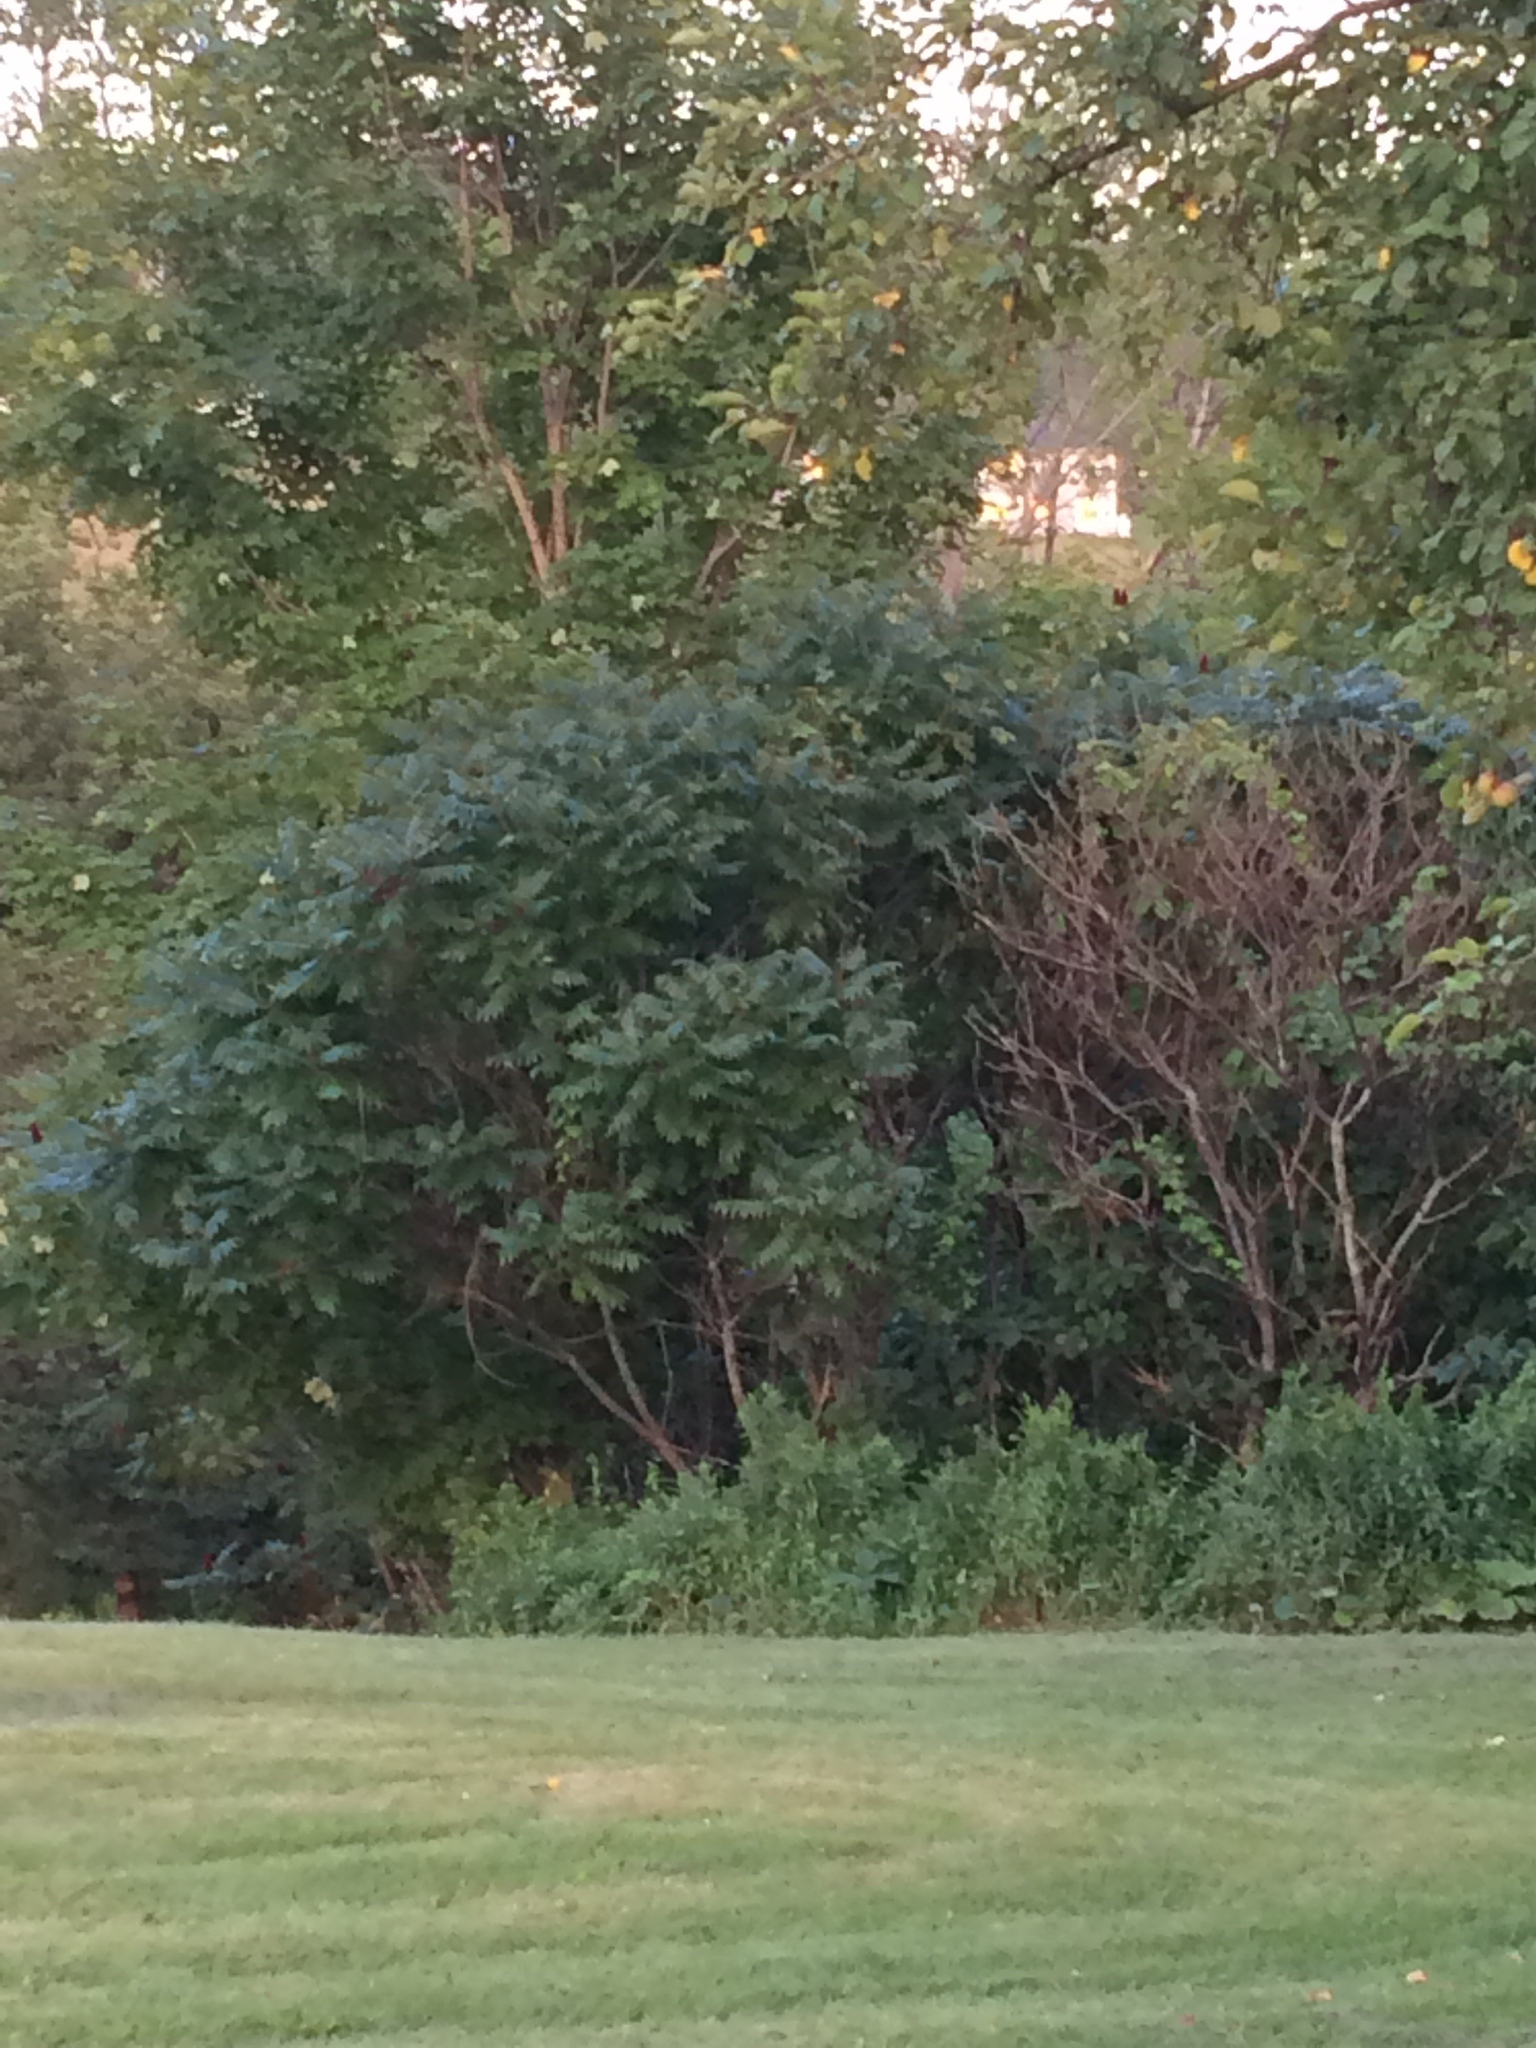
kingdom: Plantae
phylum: Tracheophyta
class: Magnoliopsida
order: Sapindales
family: Anacardiaceae
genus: Rhus
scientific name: Rhus typhina
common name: Staghorn sumac
